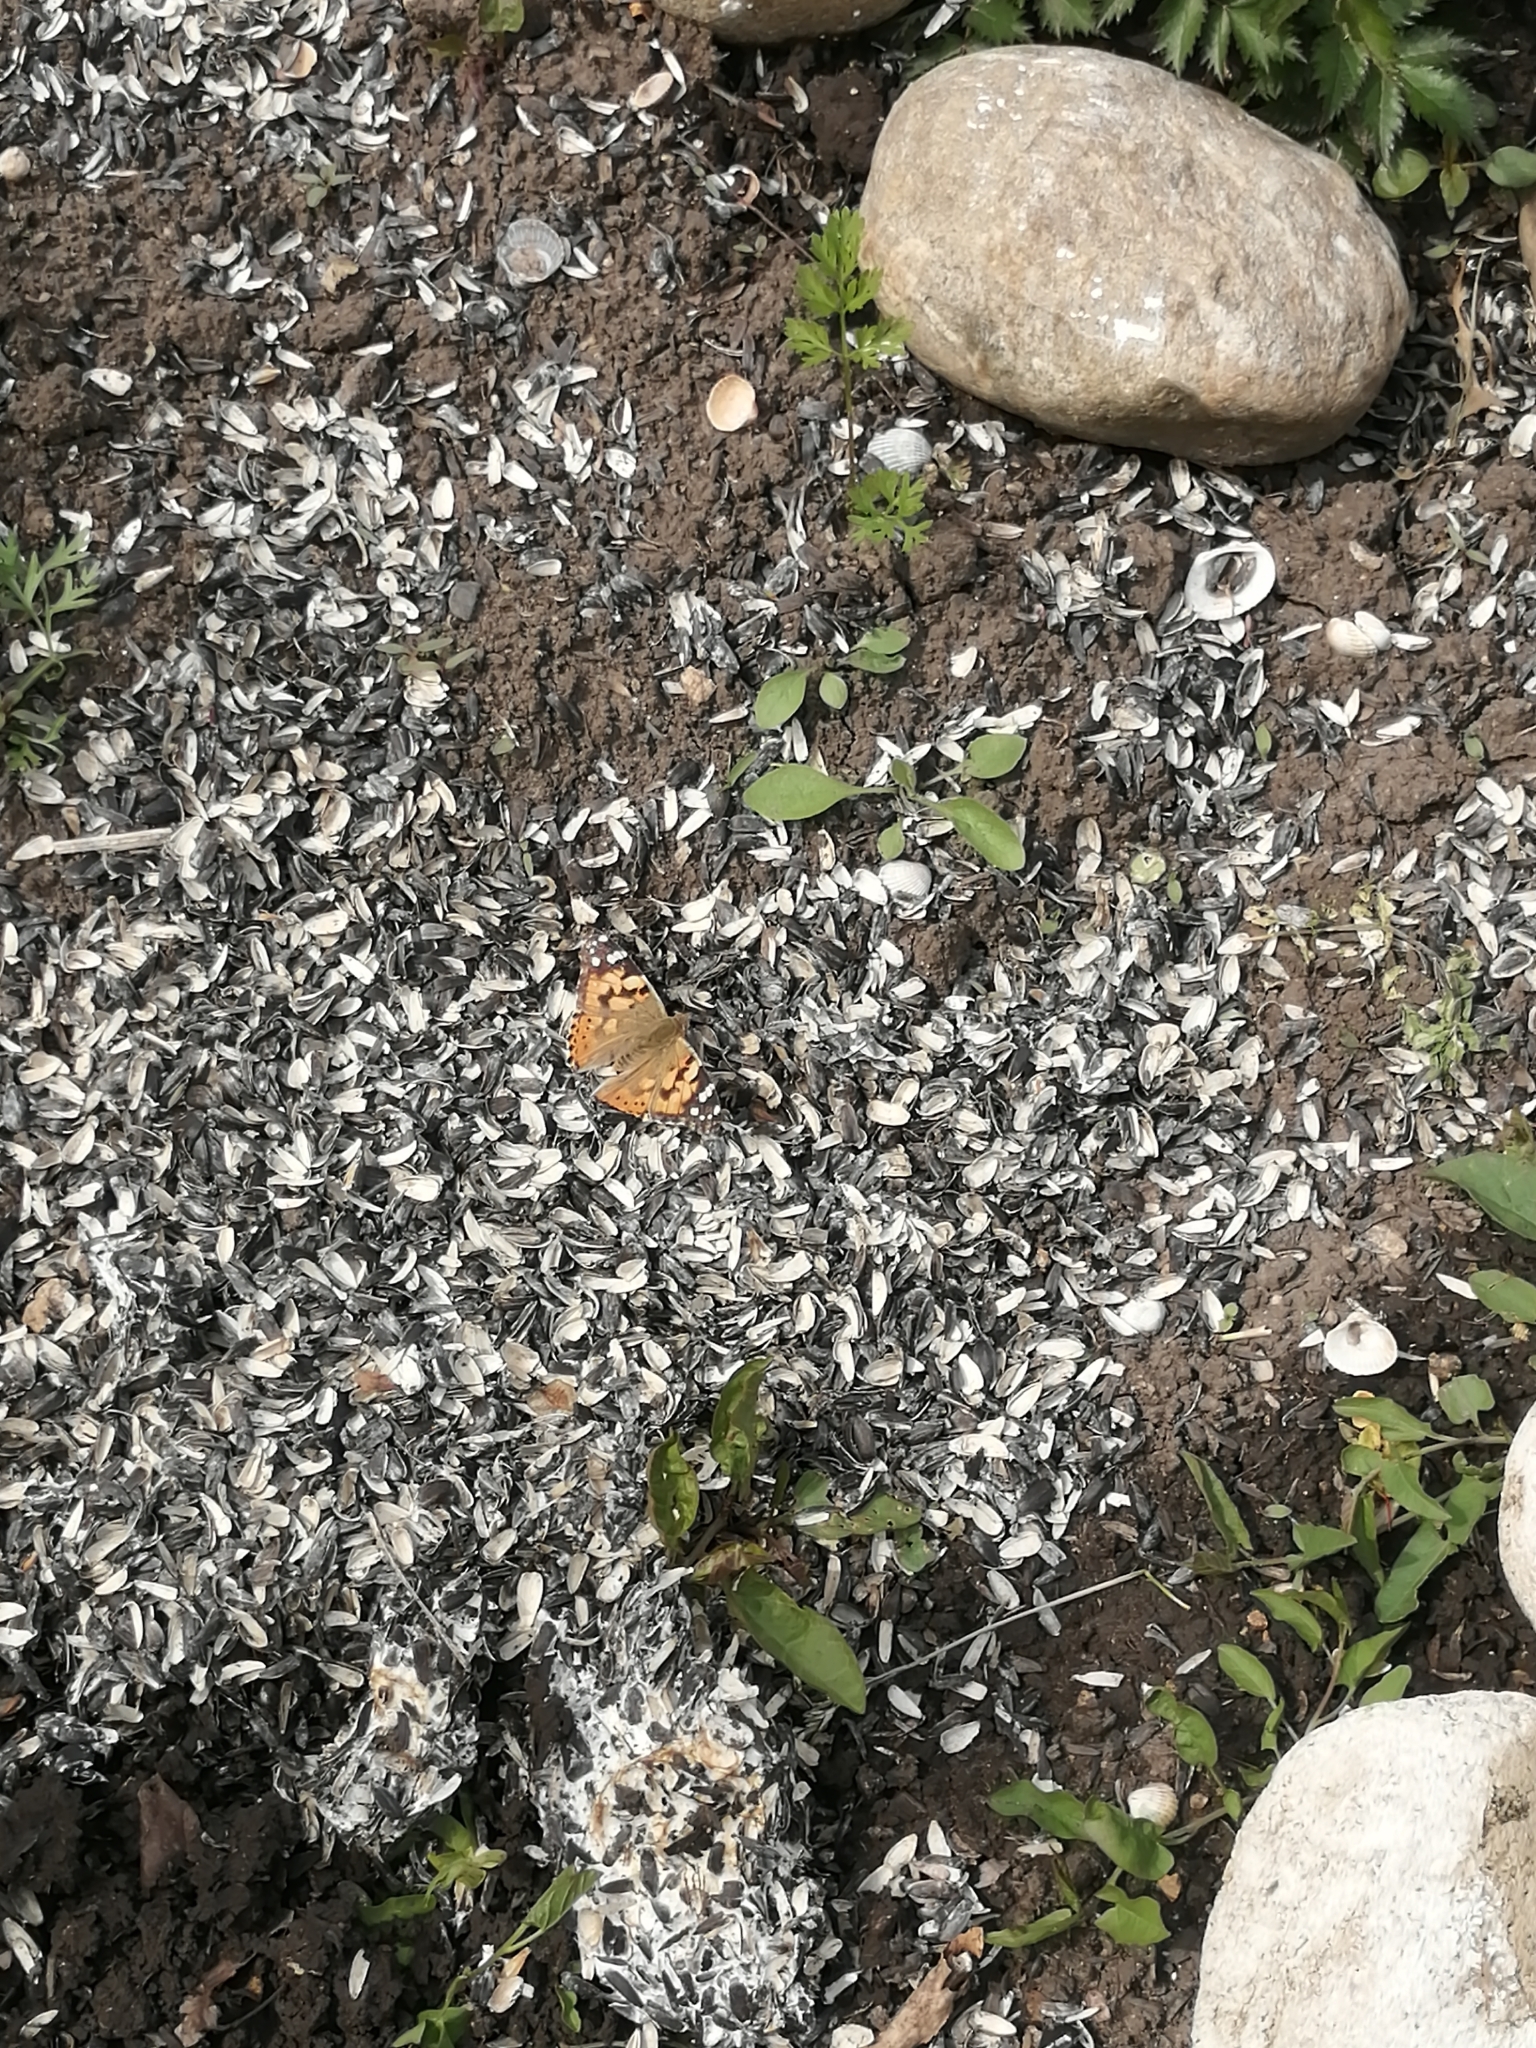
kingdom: Animalia
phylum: Arthropoda
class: Insecta
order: Lepidoptera
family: Nymphalidae
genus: Vanessa
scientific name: Vanessa cardui
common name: Painted lady
